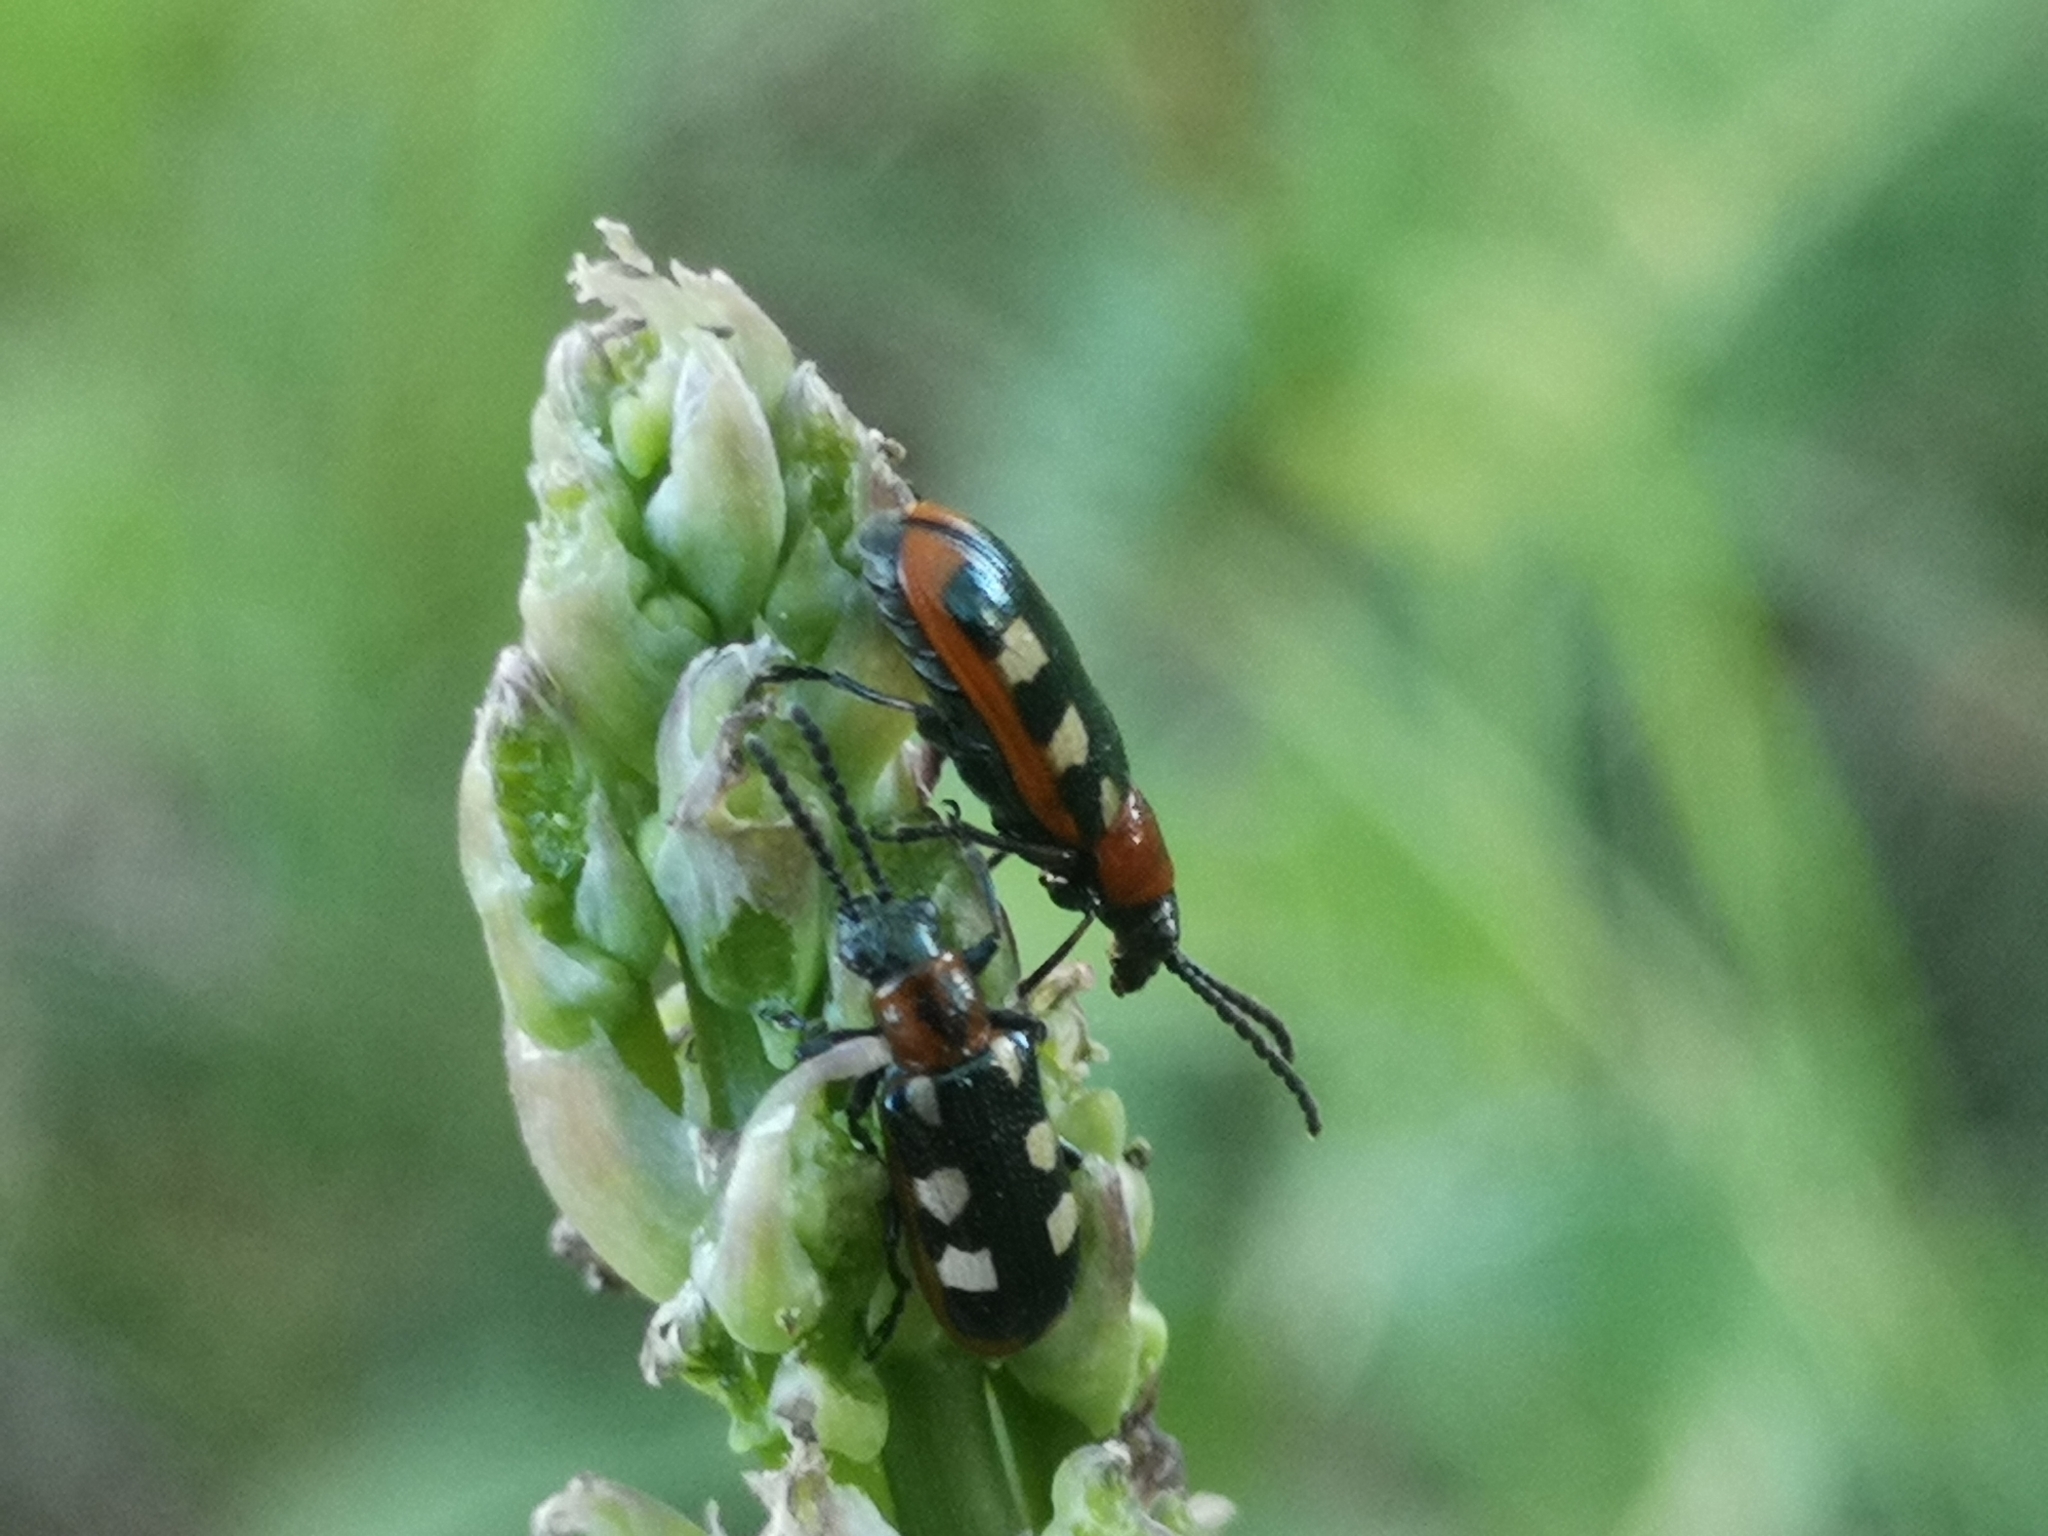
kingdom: Animalia
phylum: Arthropoda
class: Insecta
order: Coleoptera
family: Chrysomelidae
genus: Crioceris
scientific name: Crioceris asparagi
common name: Asparagus beetle
